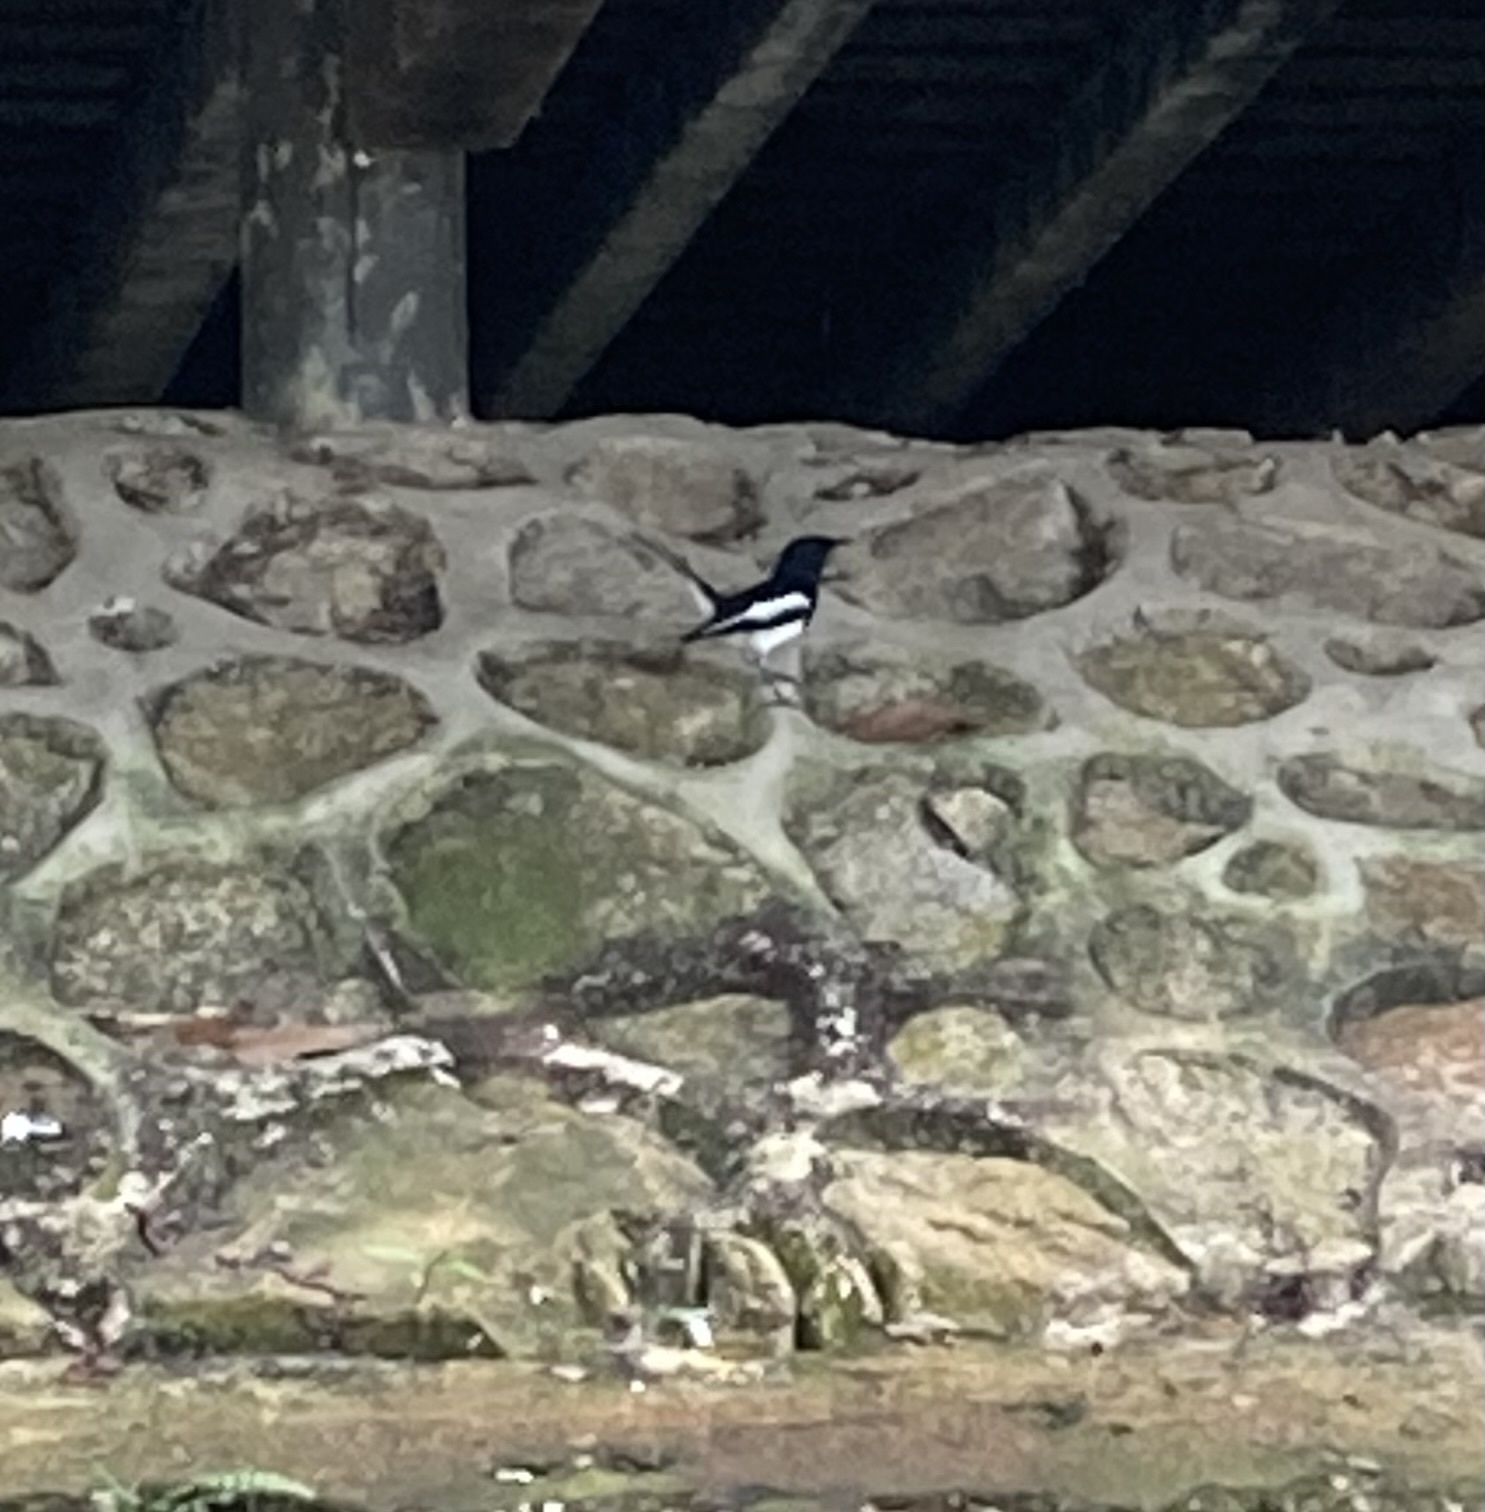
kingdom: Animalia
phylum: Chordata
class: Aves
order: Passeriformes
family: Muscicapidae
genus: Copsychus
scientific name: Copsychus saularis
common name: Oriental magpie-robin
